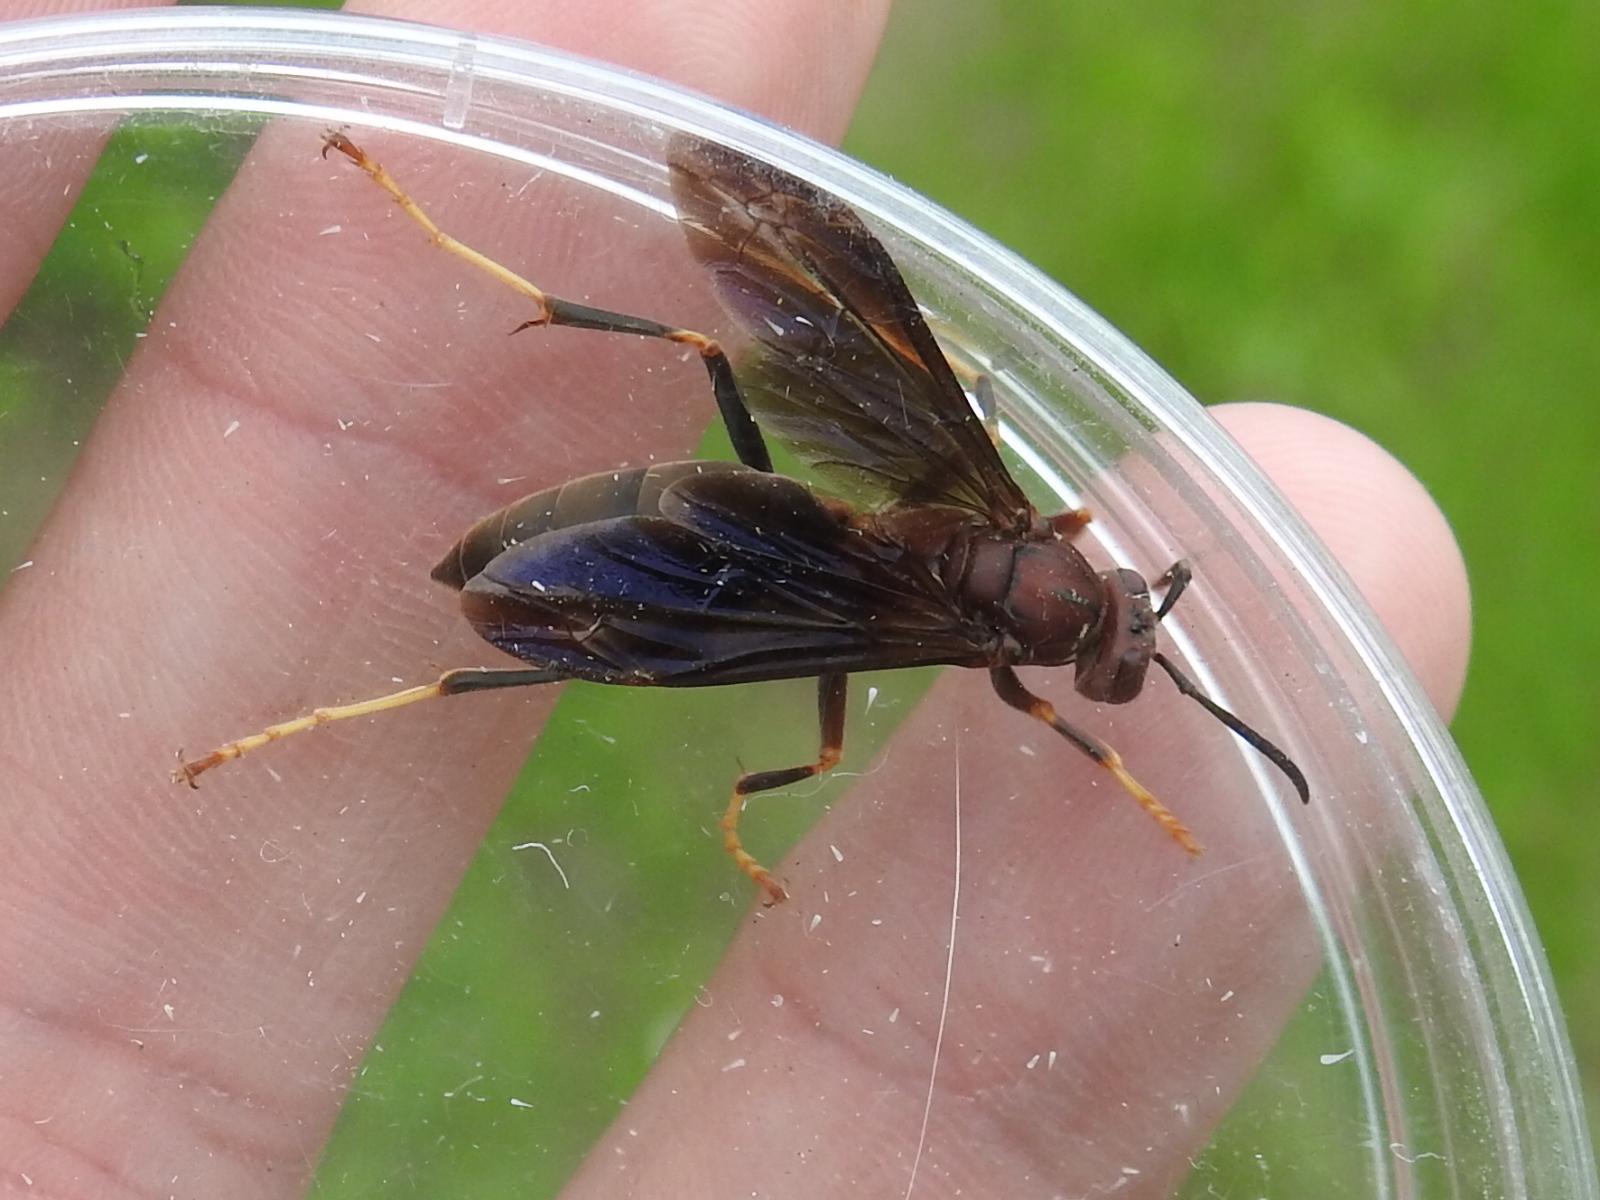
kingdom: Animalia
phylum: Arthropoda
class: Insecta
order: Hymenoptera
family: Eumenidae
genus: Polistes
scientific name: Polistes metricus
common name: Metric paper wasp
